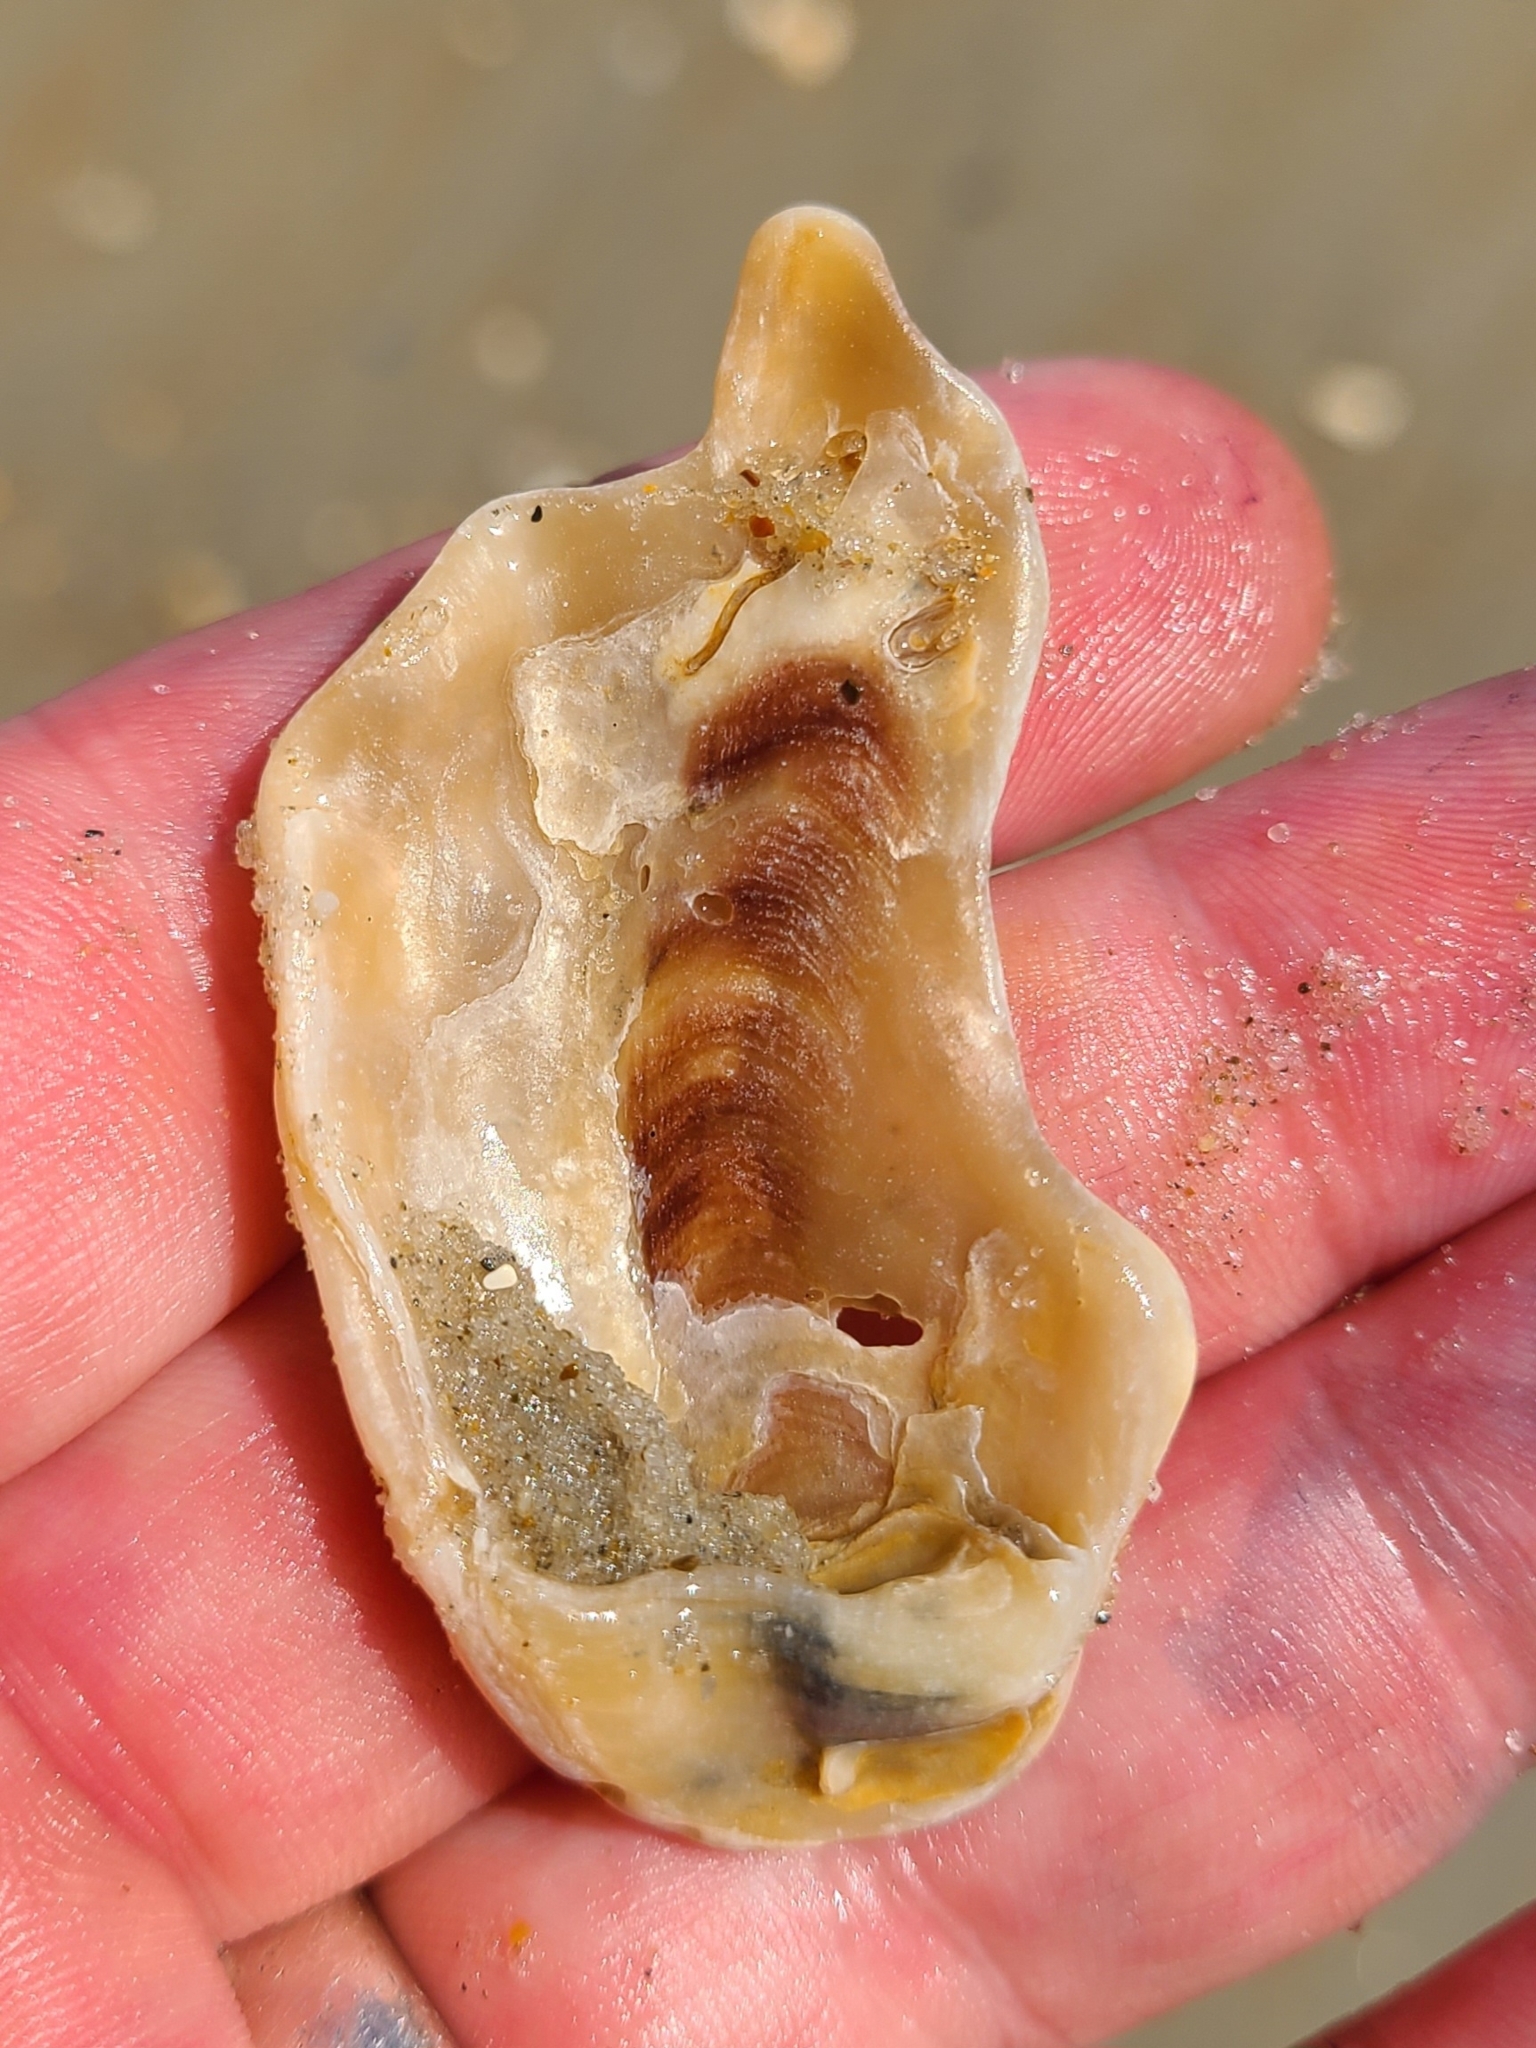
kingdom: Animalia
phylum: Mollusca
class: Bivalvia
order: Ostreida
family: Ostreidae
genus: Crassostrea
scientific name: Crassostrea virginica
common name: American oyster
